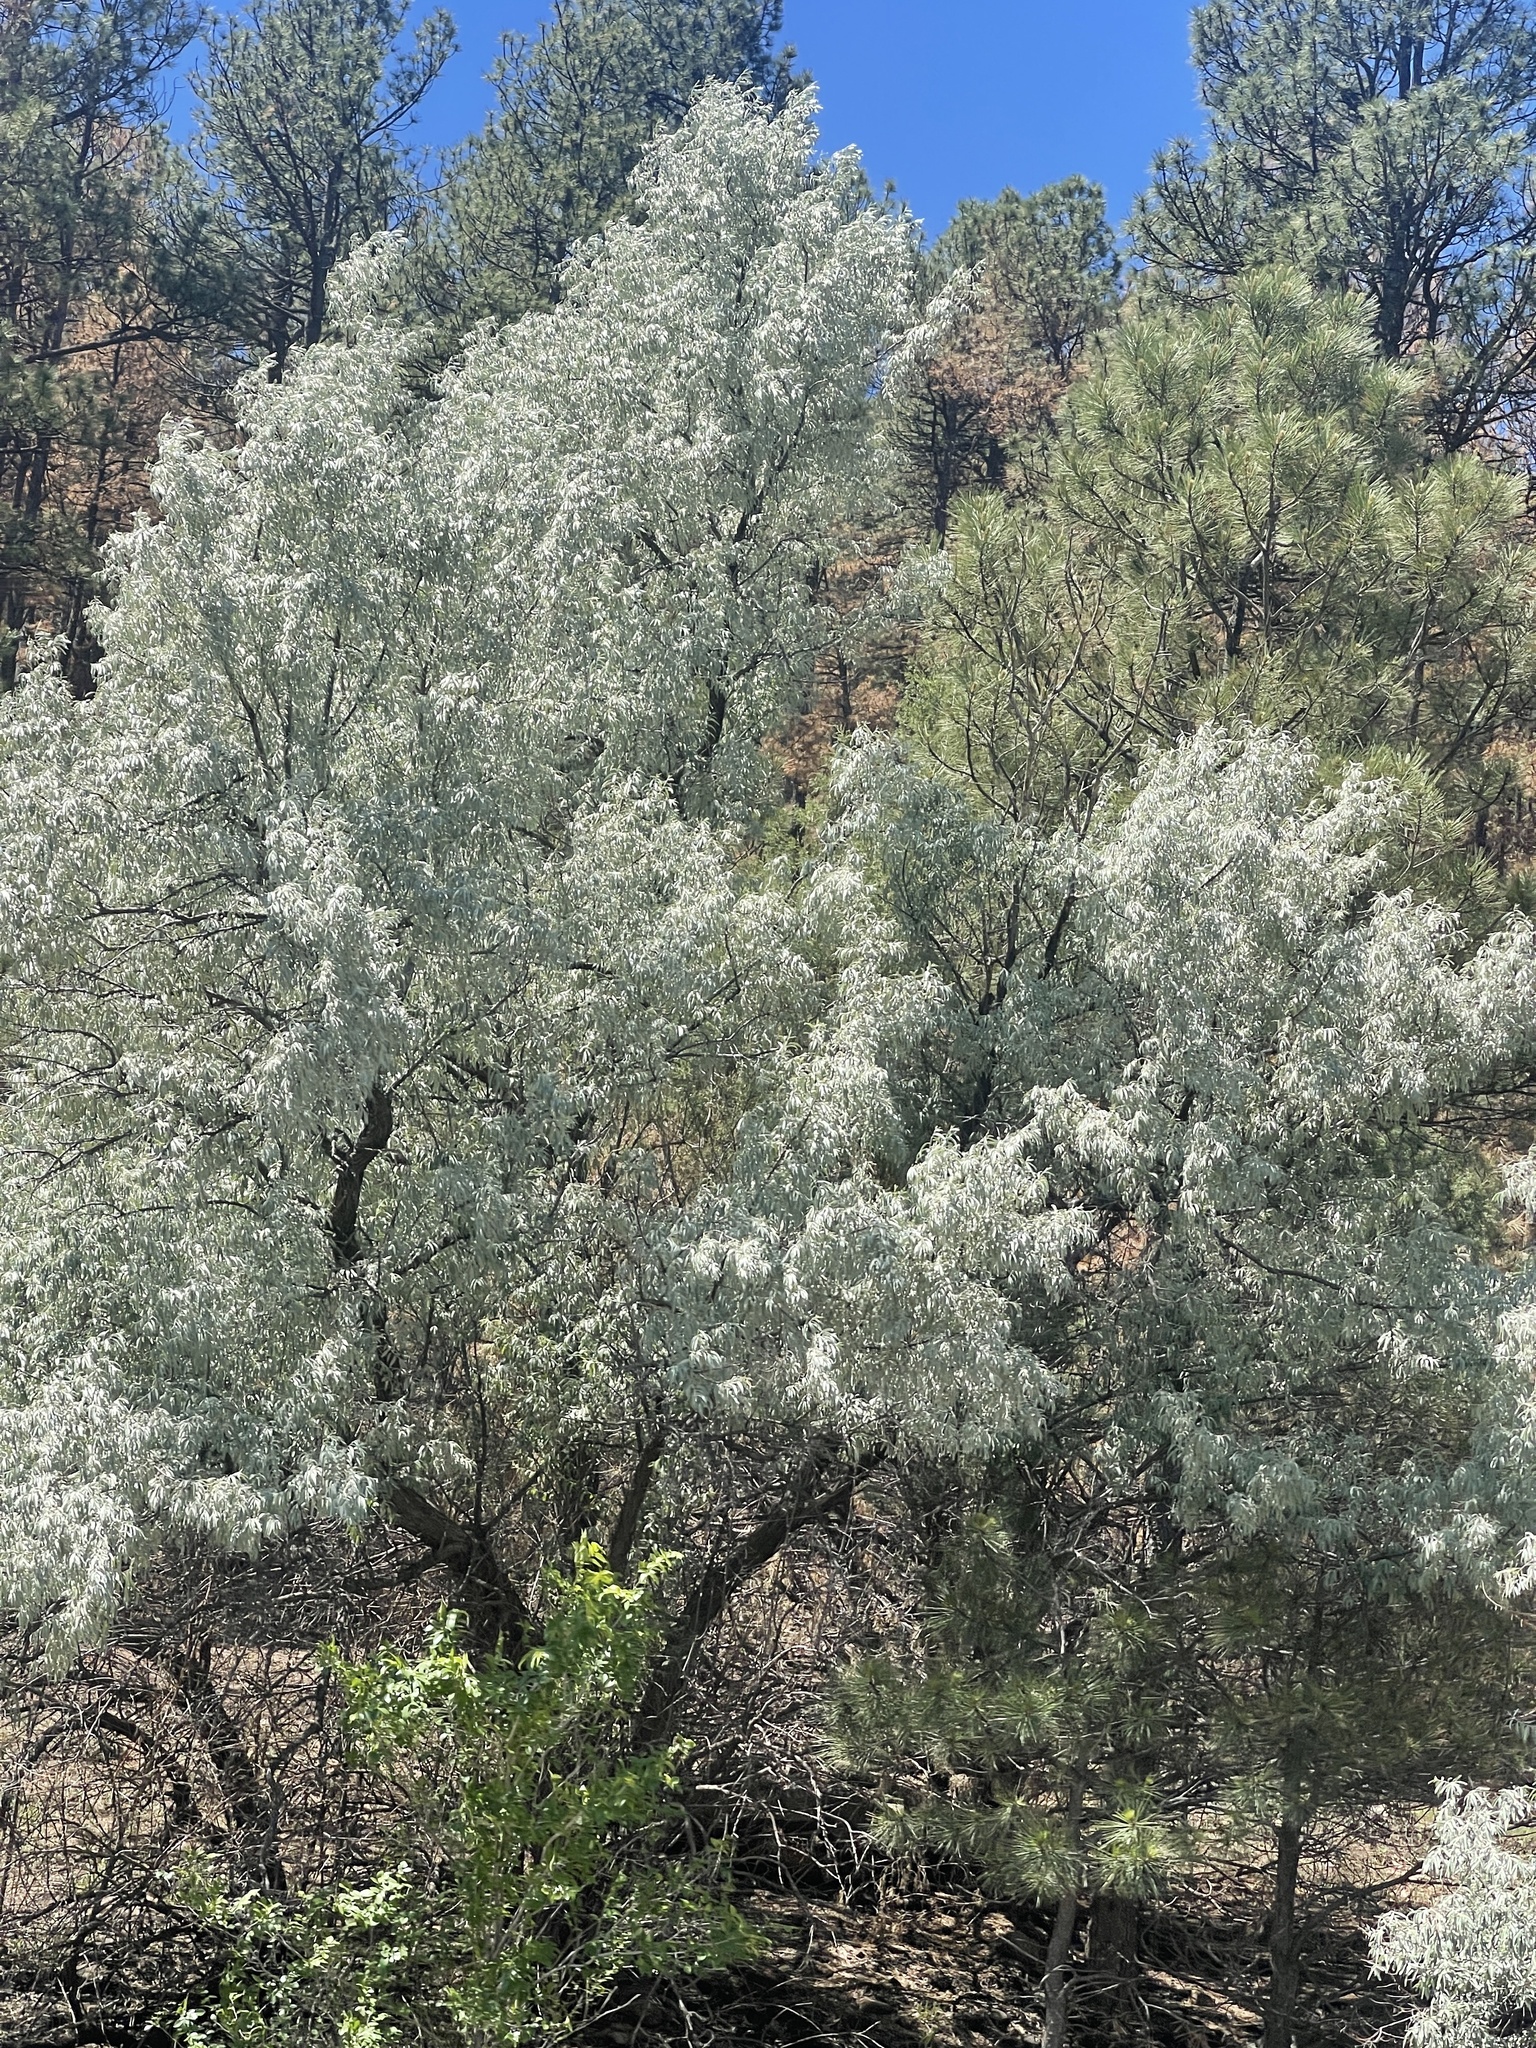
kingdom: Plantae
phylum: Tracheophyta
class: Magnoliopsida
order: Rosales
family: Elaeagnaceae
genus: Elaeagnus
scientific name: Elaeagnus angustifolia
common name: Russian olive
